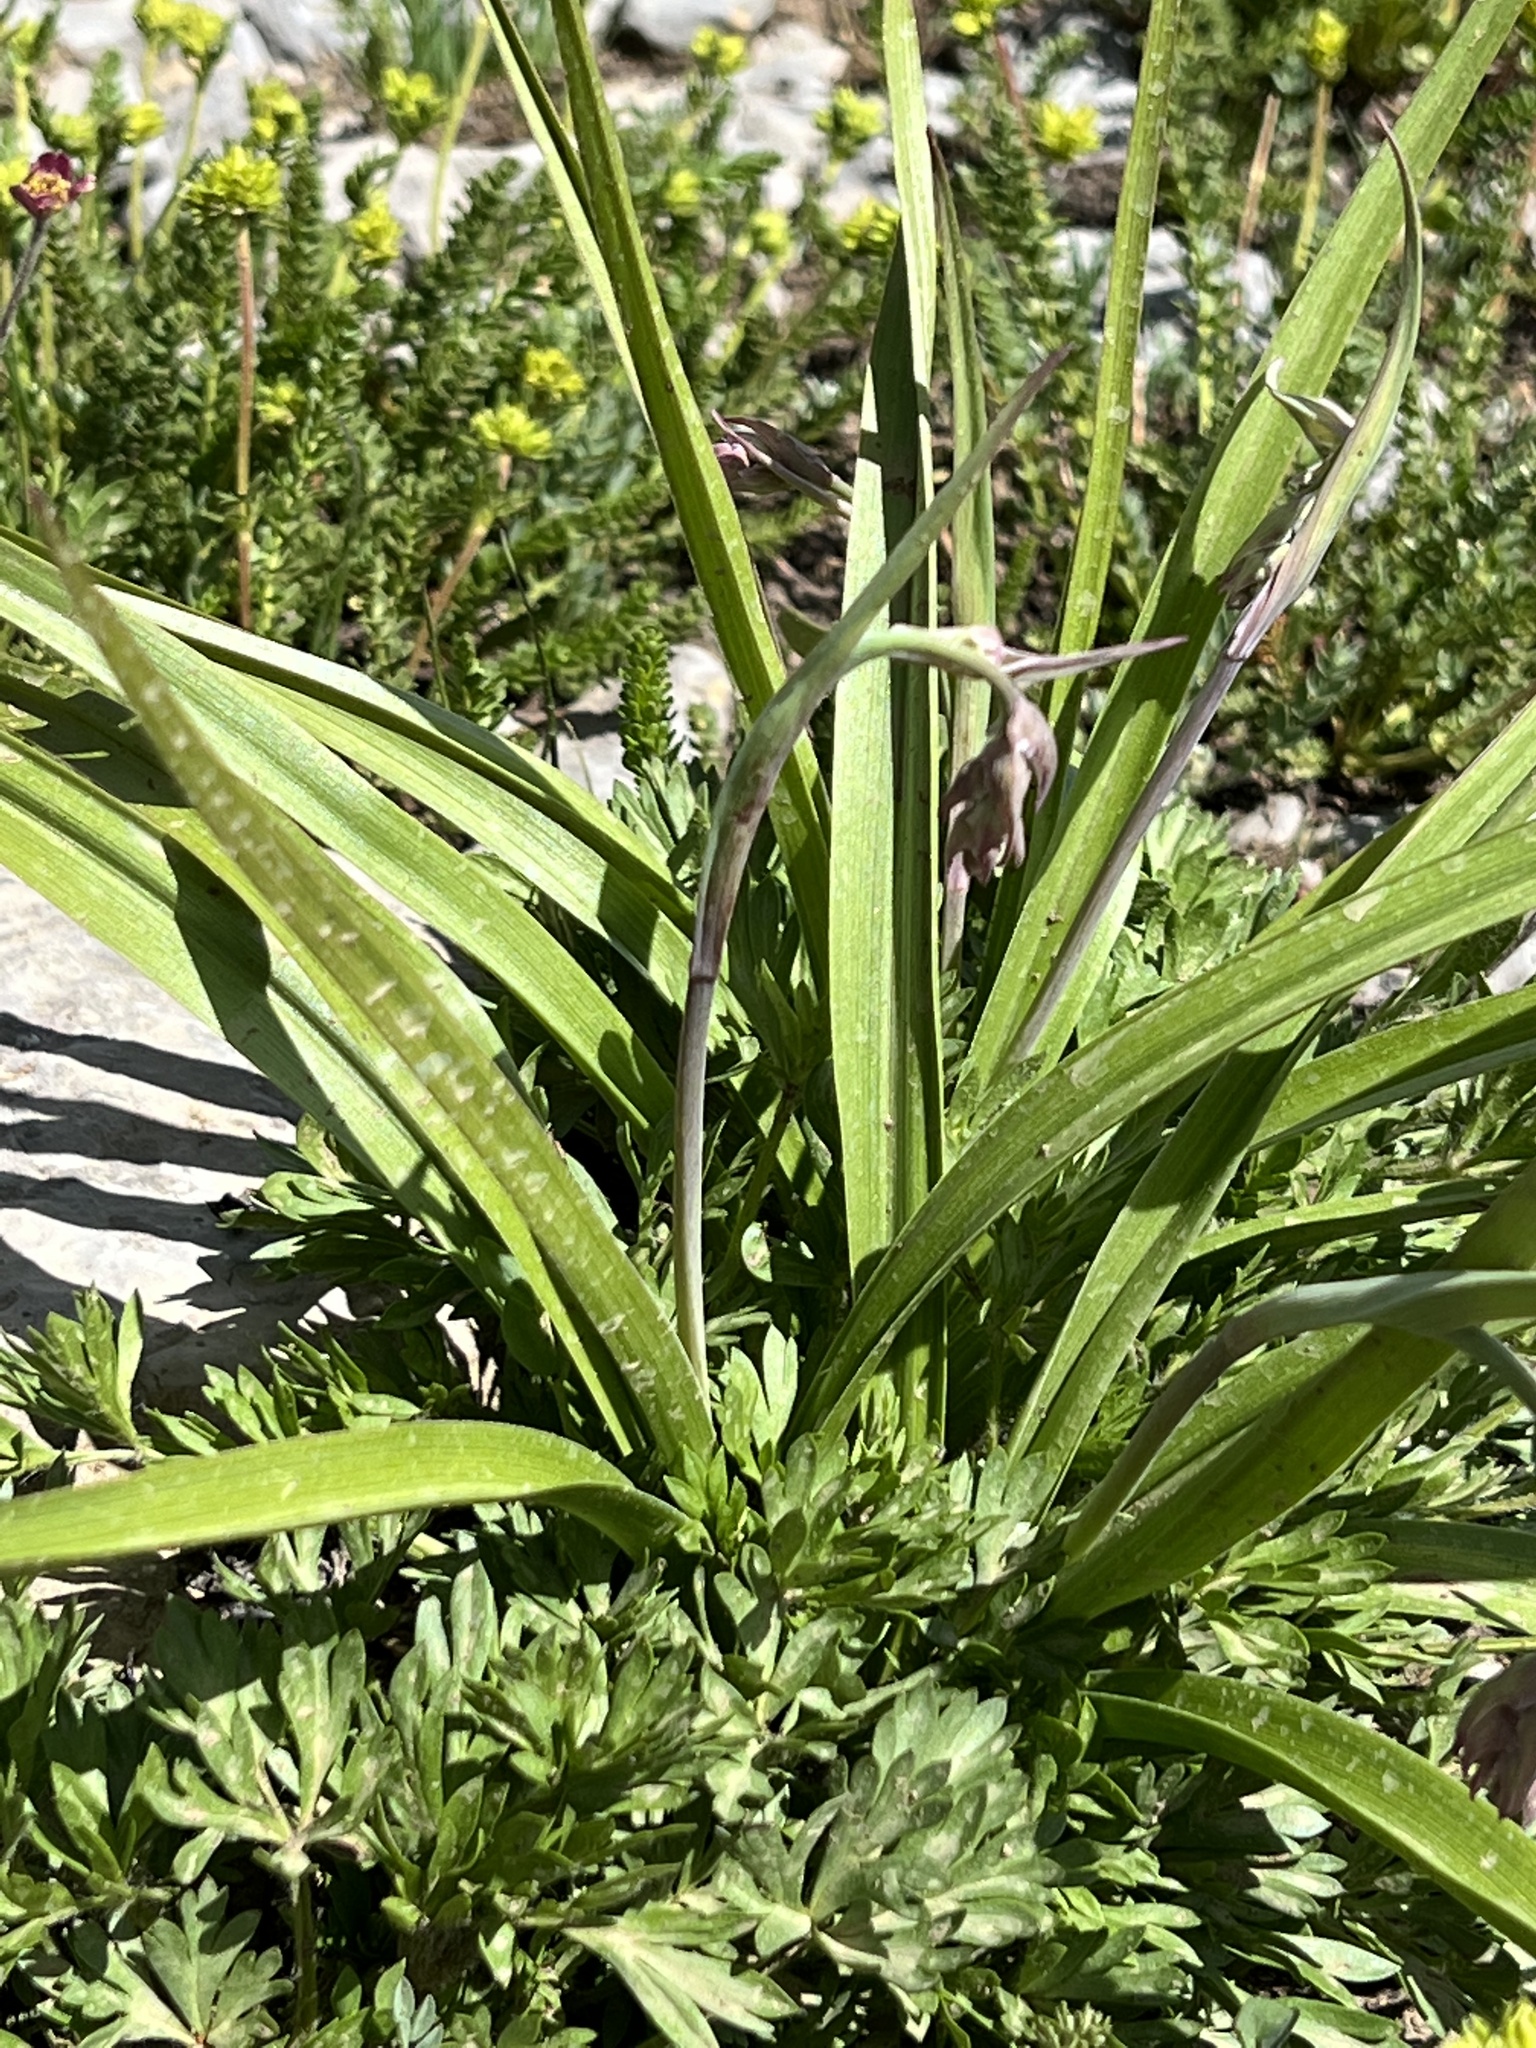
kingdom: Plantae
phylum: Tracheophyta
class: Liliopsida
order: Liliales
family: Melanthiaceae
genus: Anticlea
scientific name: Anticlea elegans
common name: Mountain death camas
